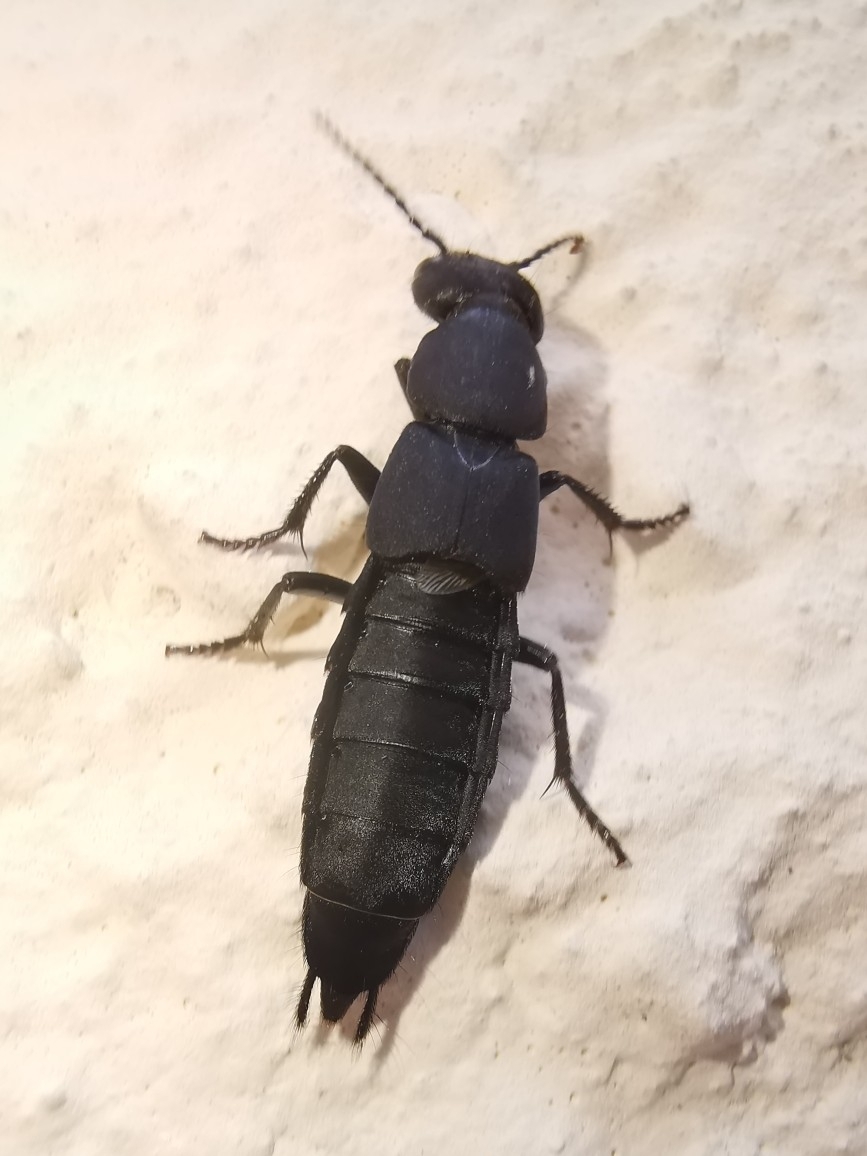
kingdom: Animalia
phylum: Arthropoda
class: Insecta
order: Coleoptera
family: Staphylinidae
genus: Ocypus
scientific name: Ocypus olens
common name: Devil's coach-horse
